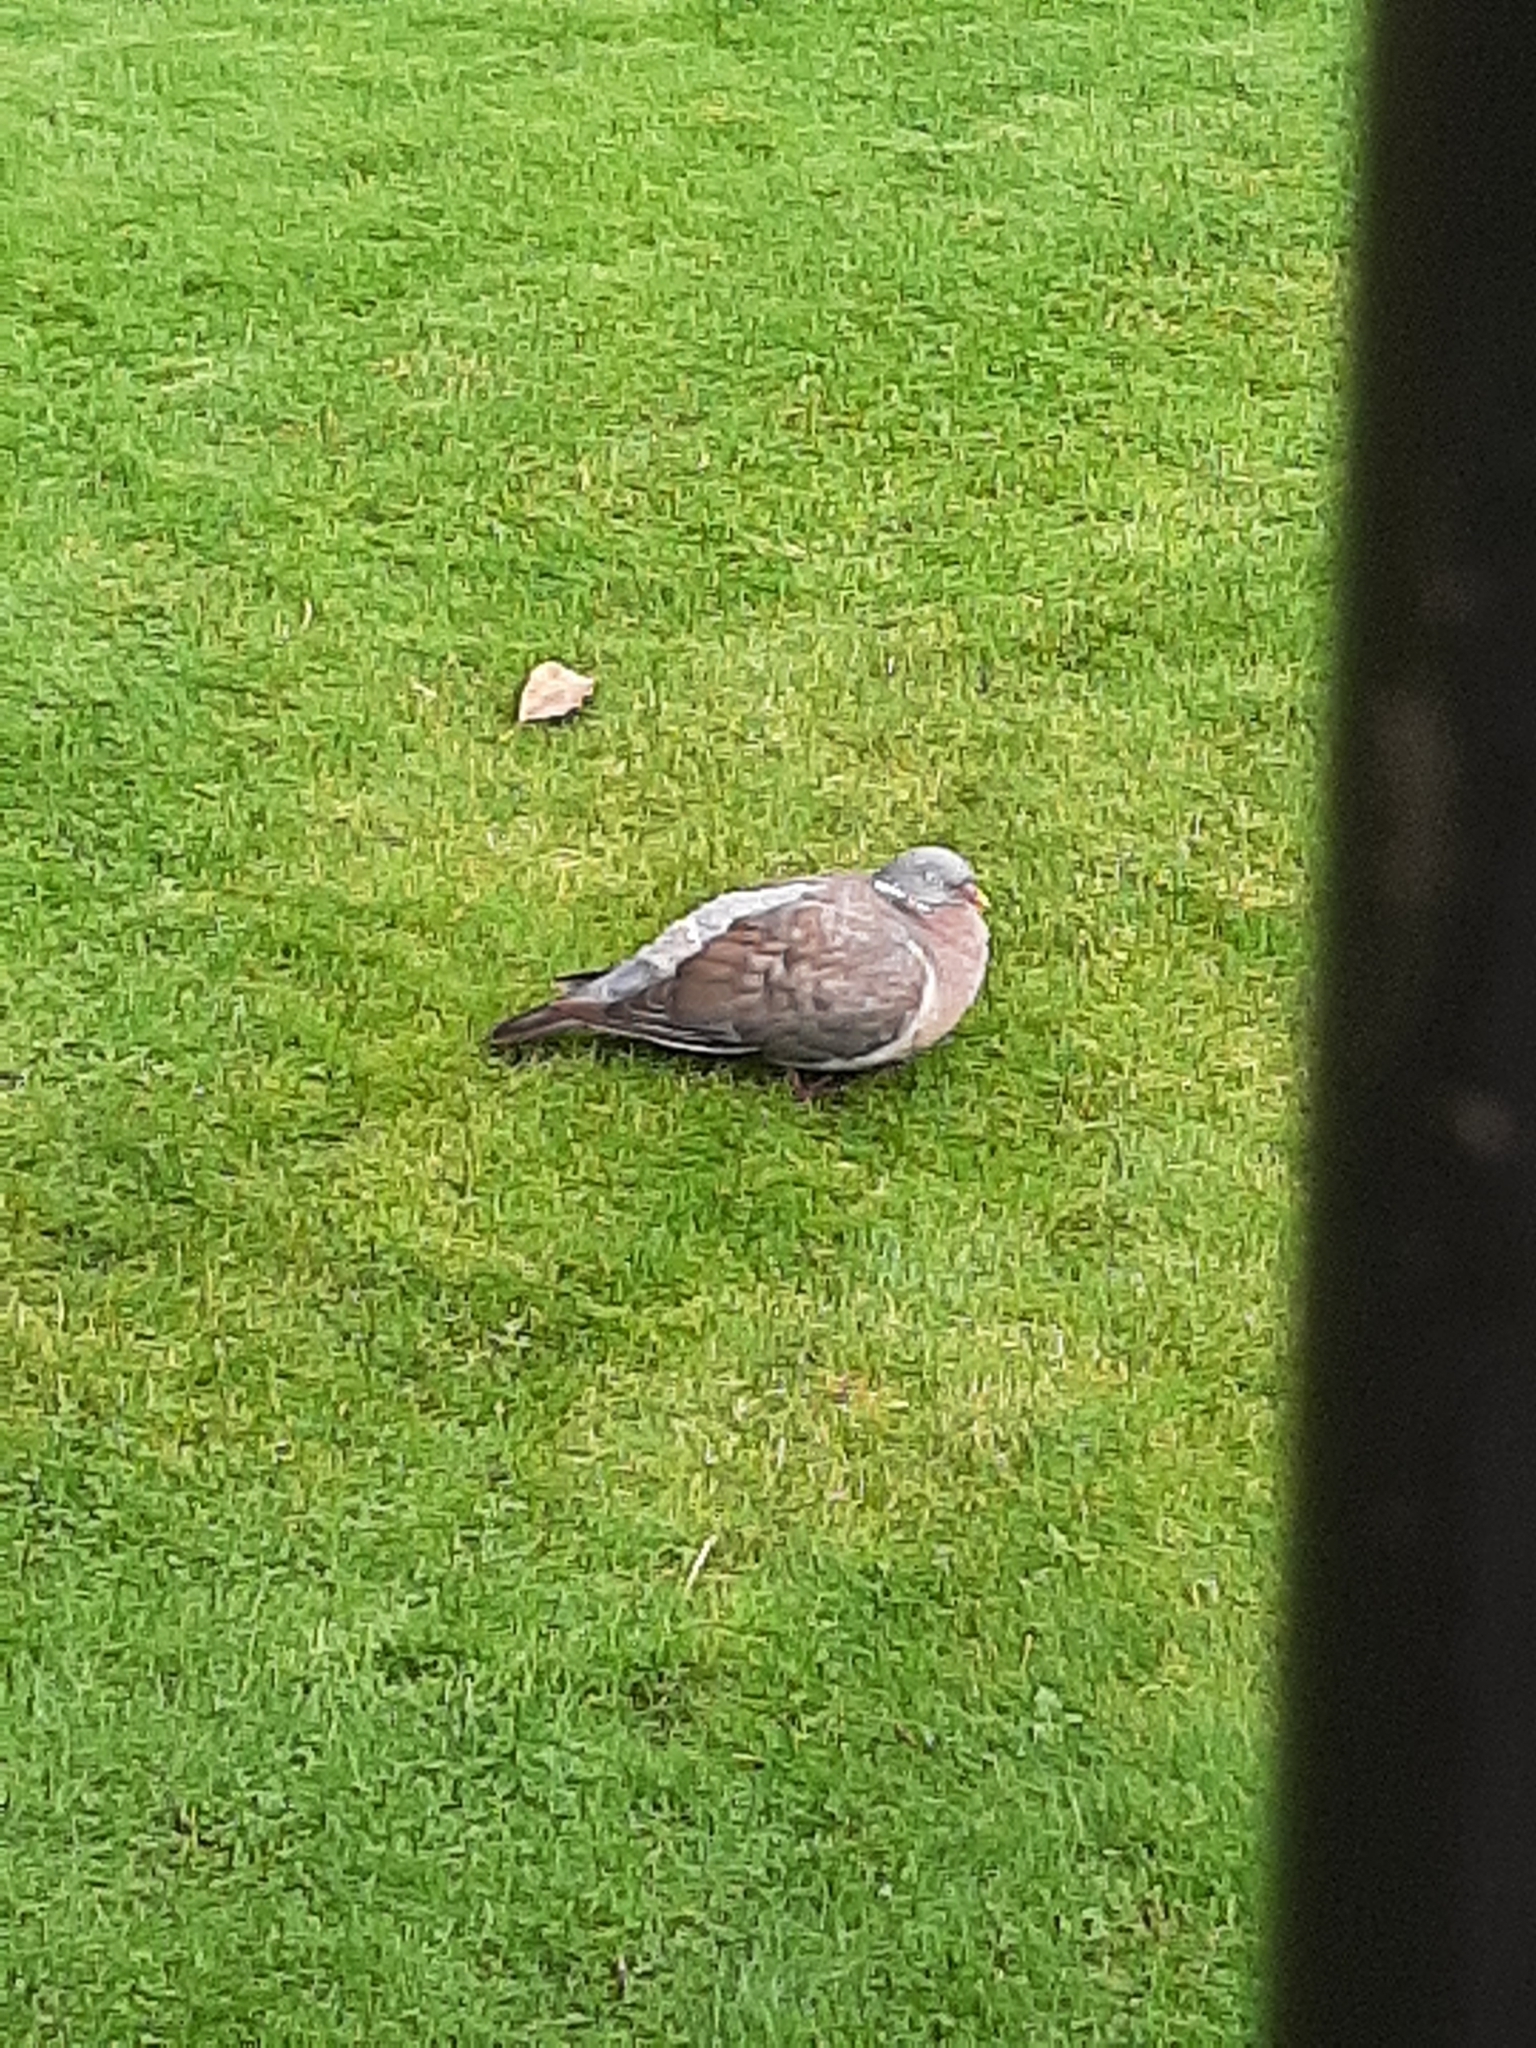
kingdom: Animalia
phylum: Chordata
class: Aves
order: Columbiformes
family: Columbidae
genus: Columba
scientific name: Columba palumbus
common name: Common wood pigeon
